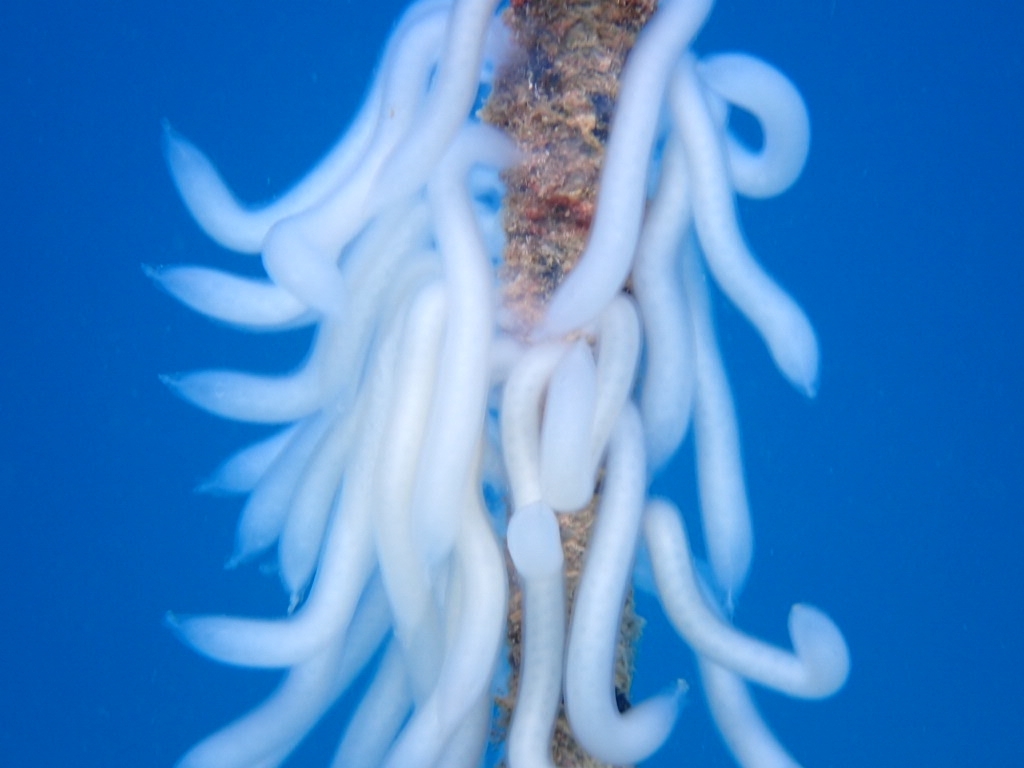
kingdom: Animalia
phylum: Mollusca
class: Cephalopoda
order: Myopsida
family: Loliginidae
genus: Loligo
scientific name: Loligo vulgaris
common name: European squid
